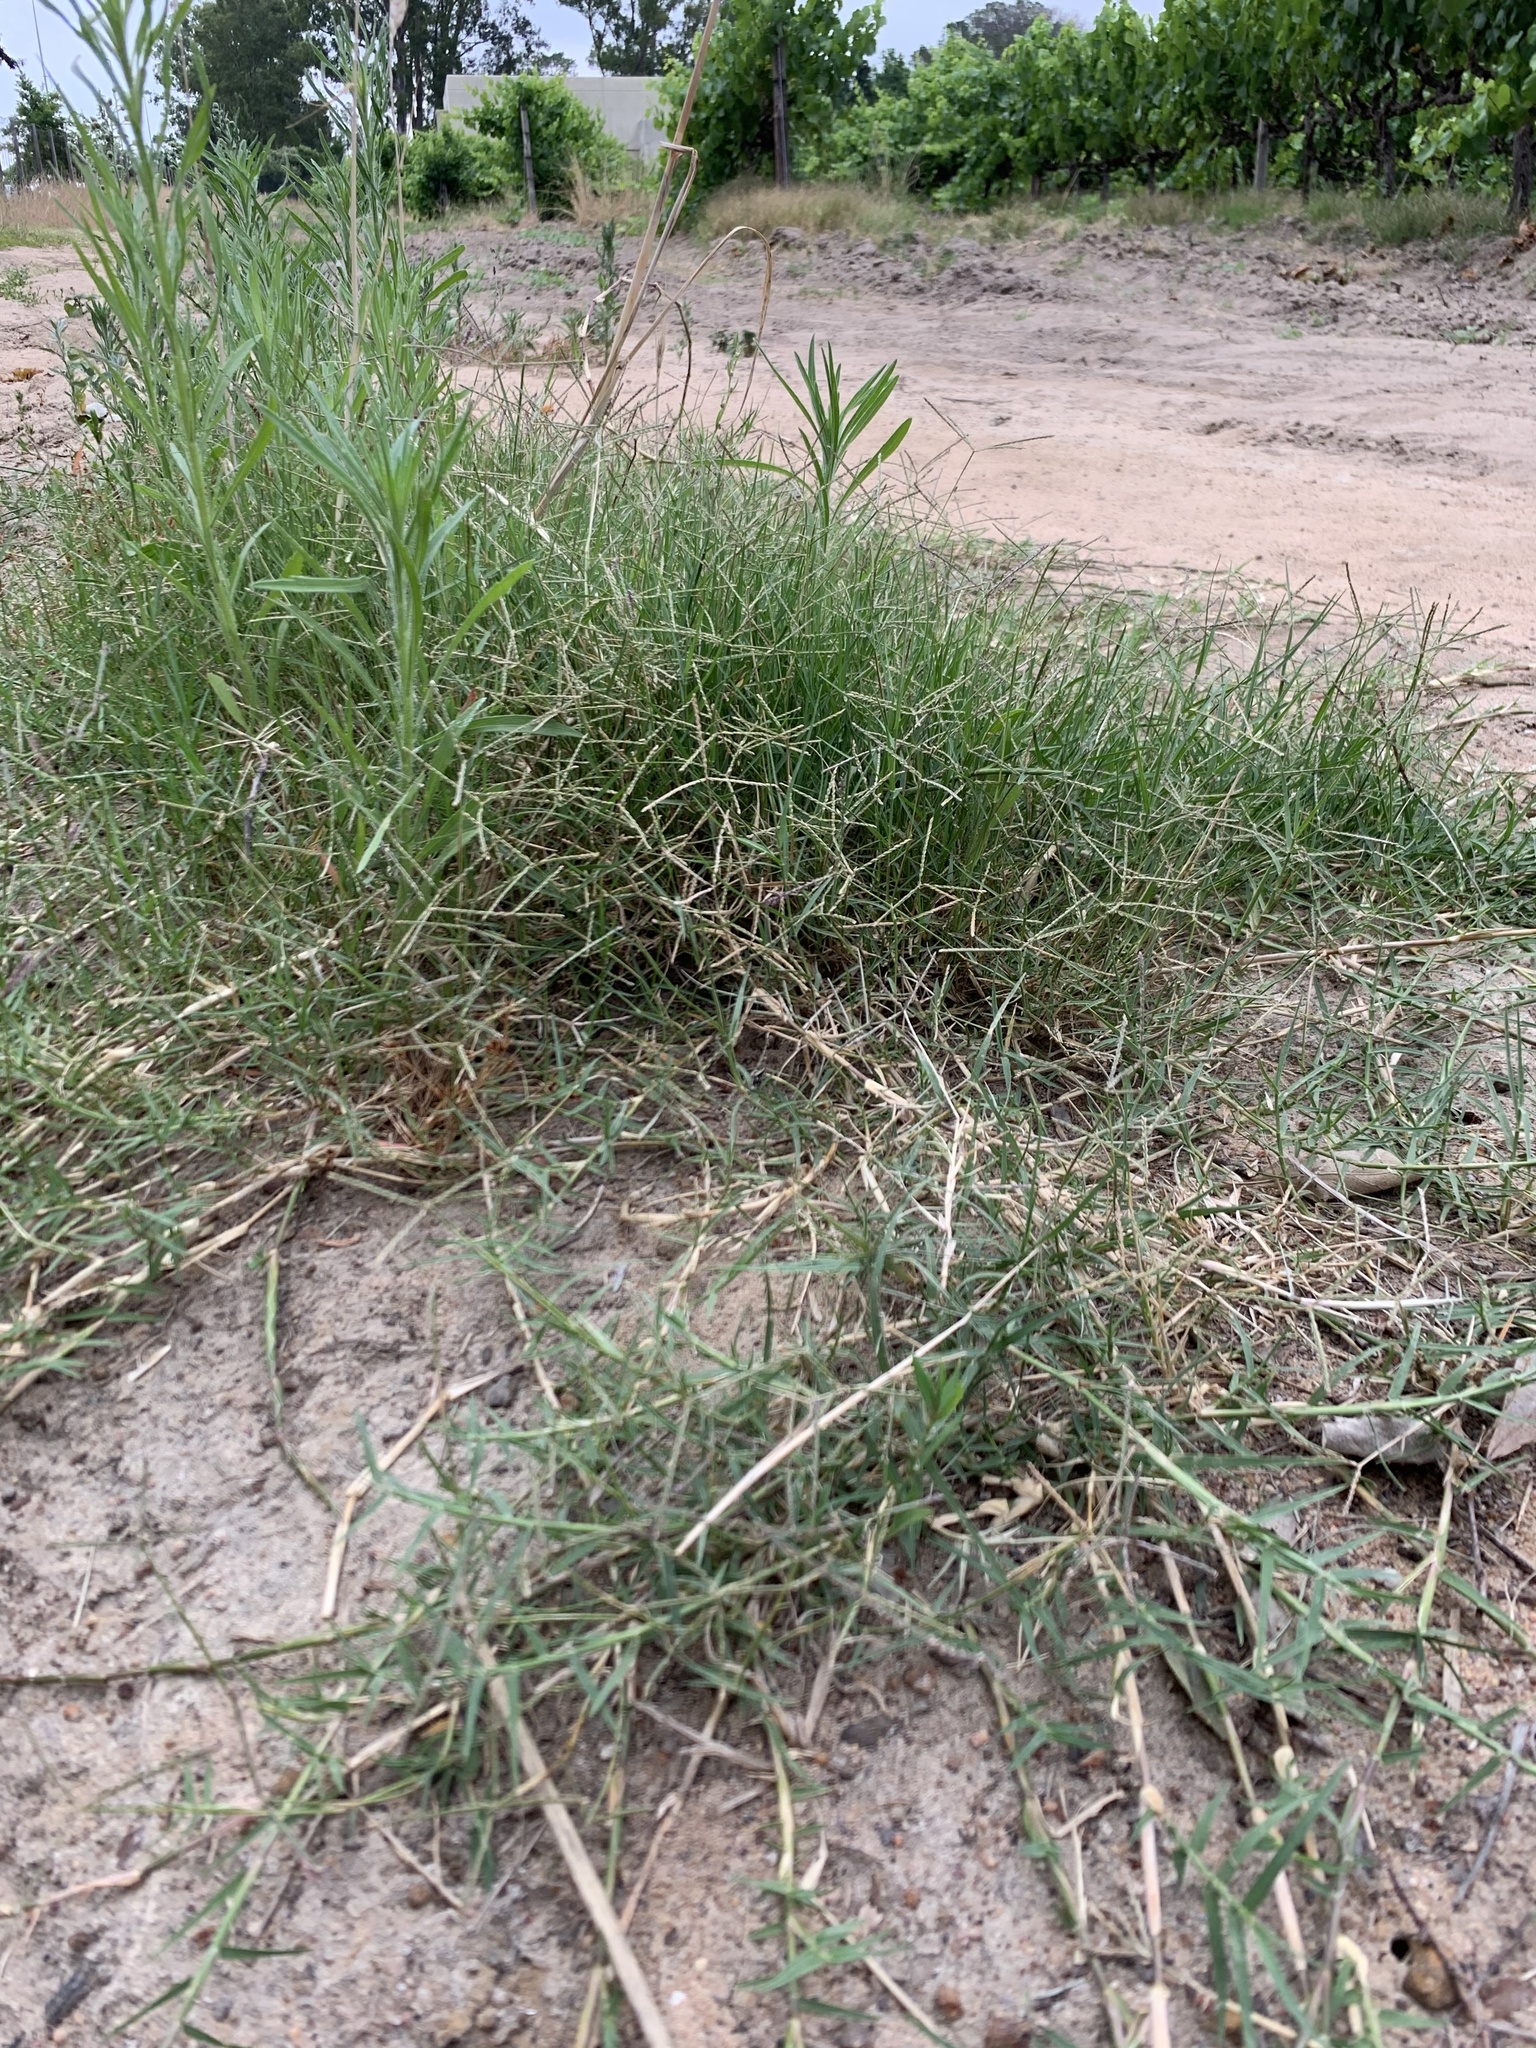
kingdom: Plantae
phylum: Tracheophyta
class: Liliopsida
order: Poales
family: Poaceae
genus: Cynodon
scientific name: Cynodon dactylon
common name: Bermuda grass
